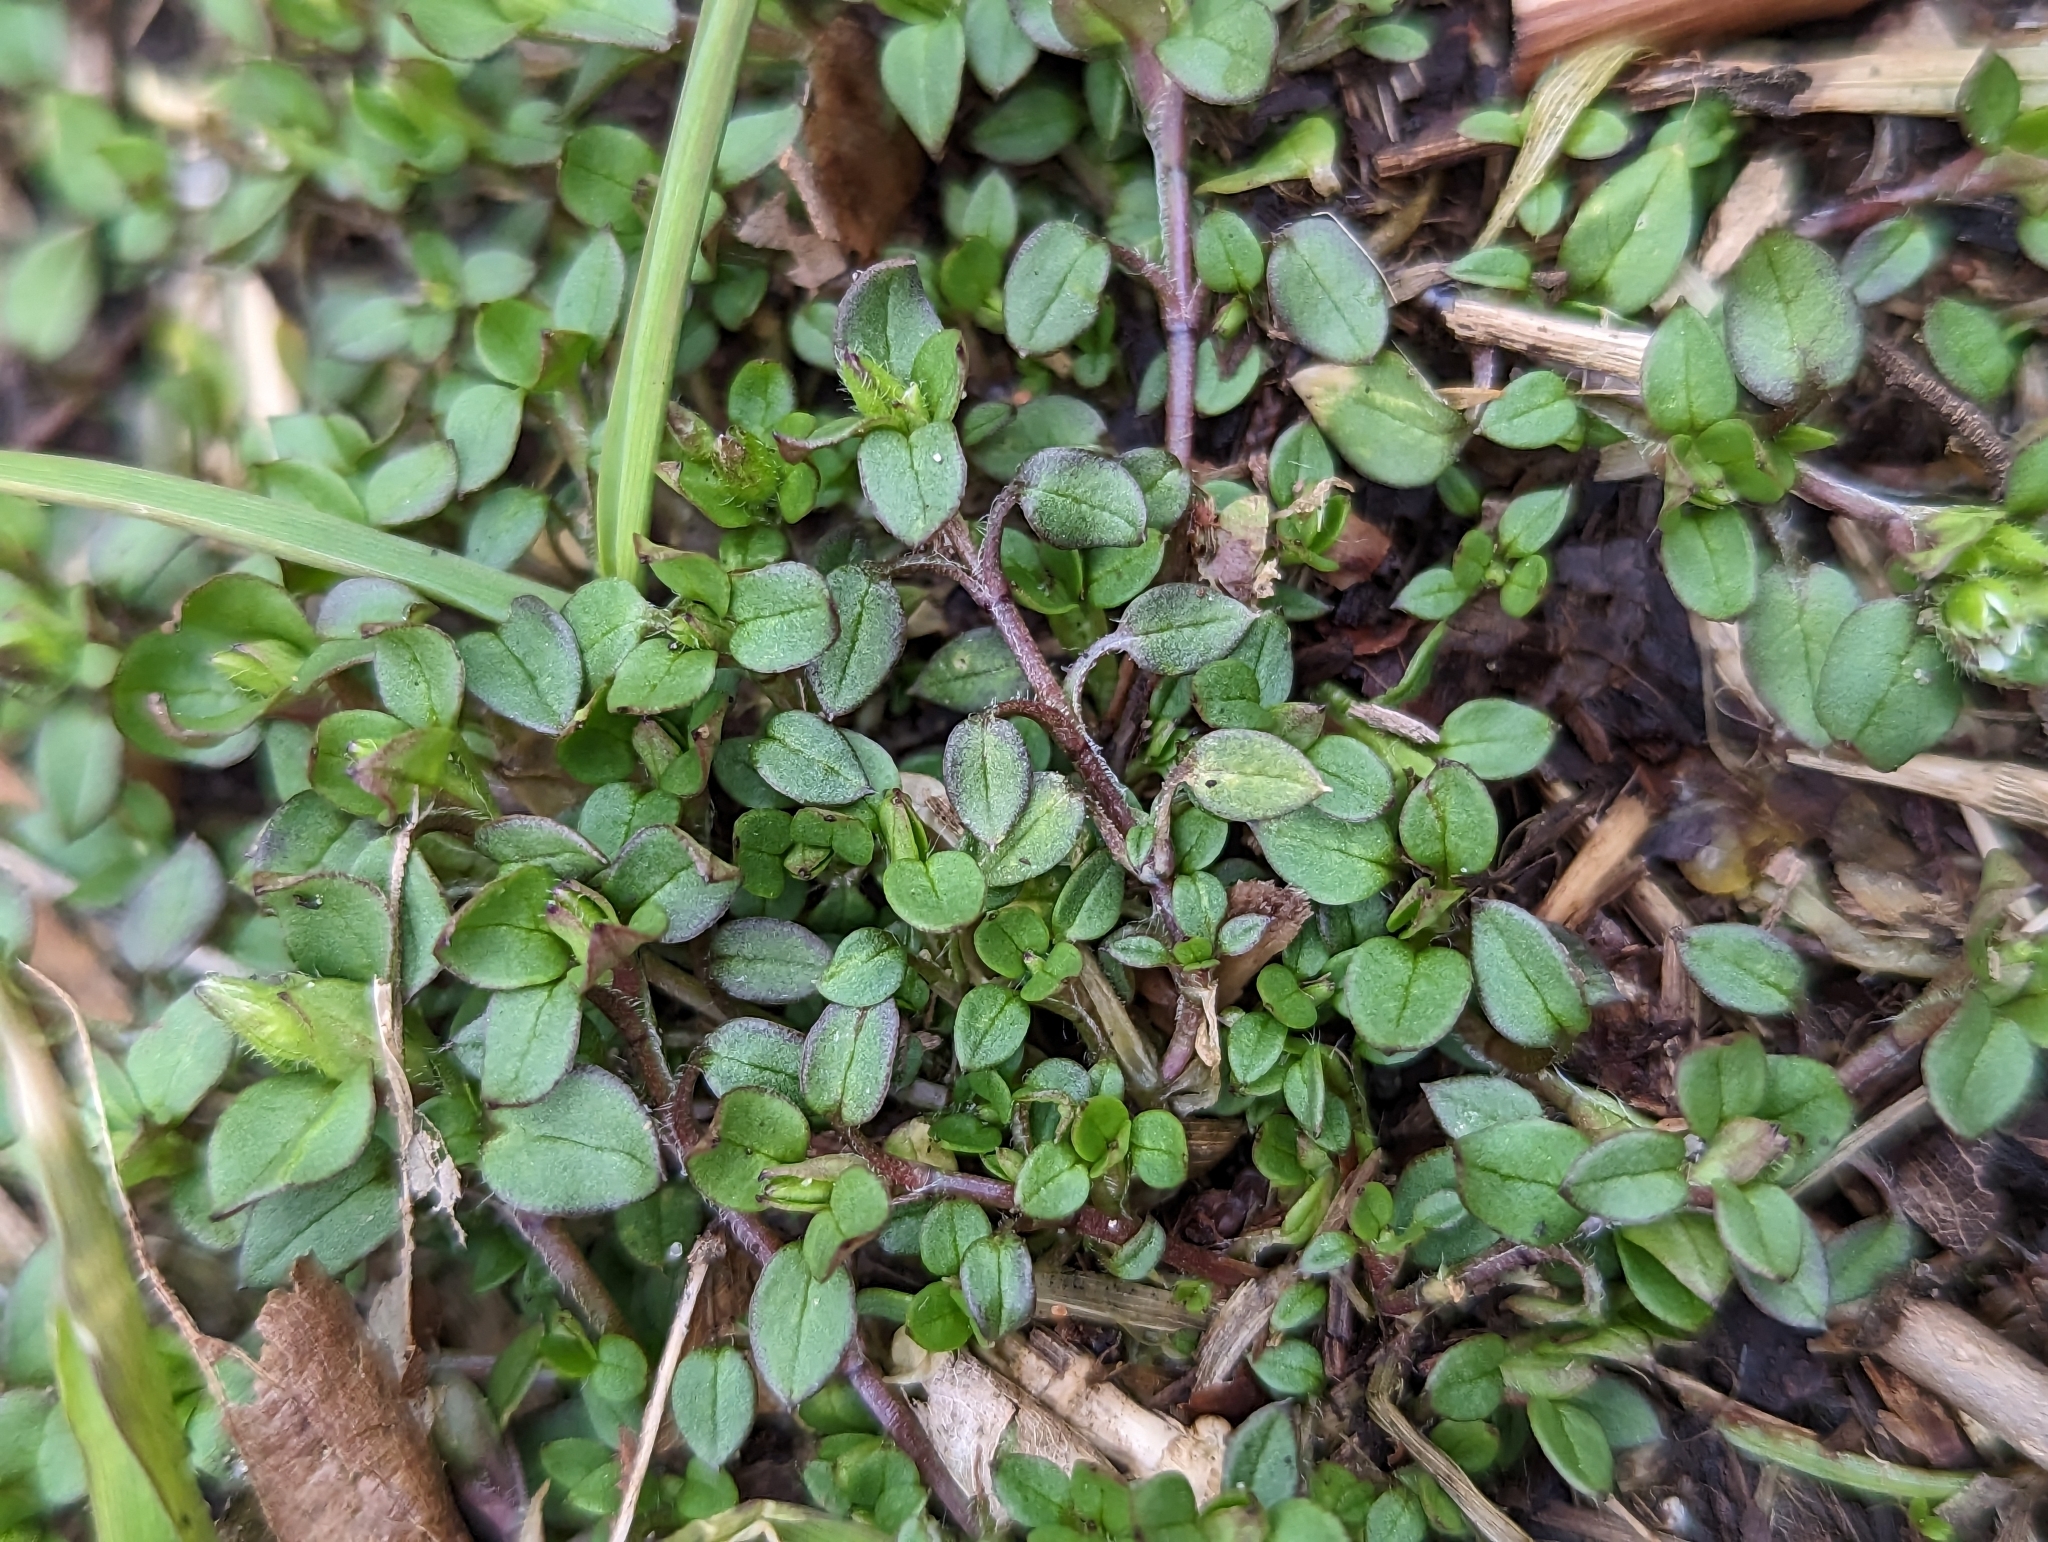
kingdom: Plantae
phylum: Tracheophyta
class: Magnoliopsida
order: Caryophyllales
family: Caryophyllaceae
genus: Stellaria
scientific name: Stellaria media
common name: Common chickweed
